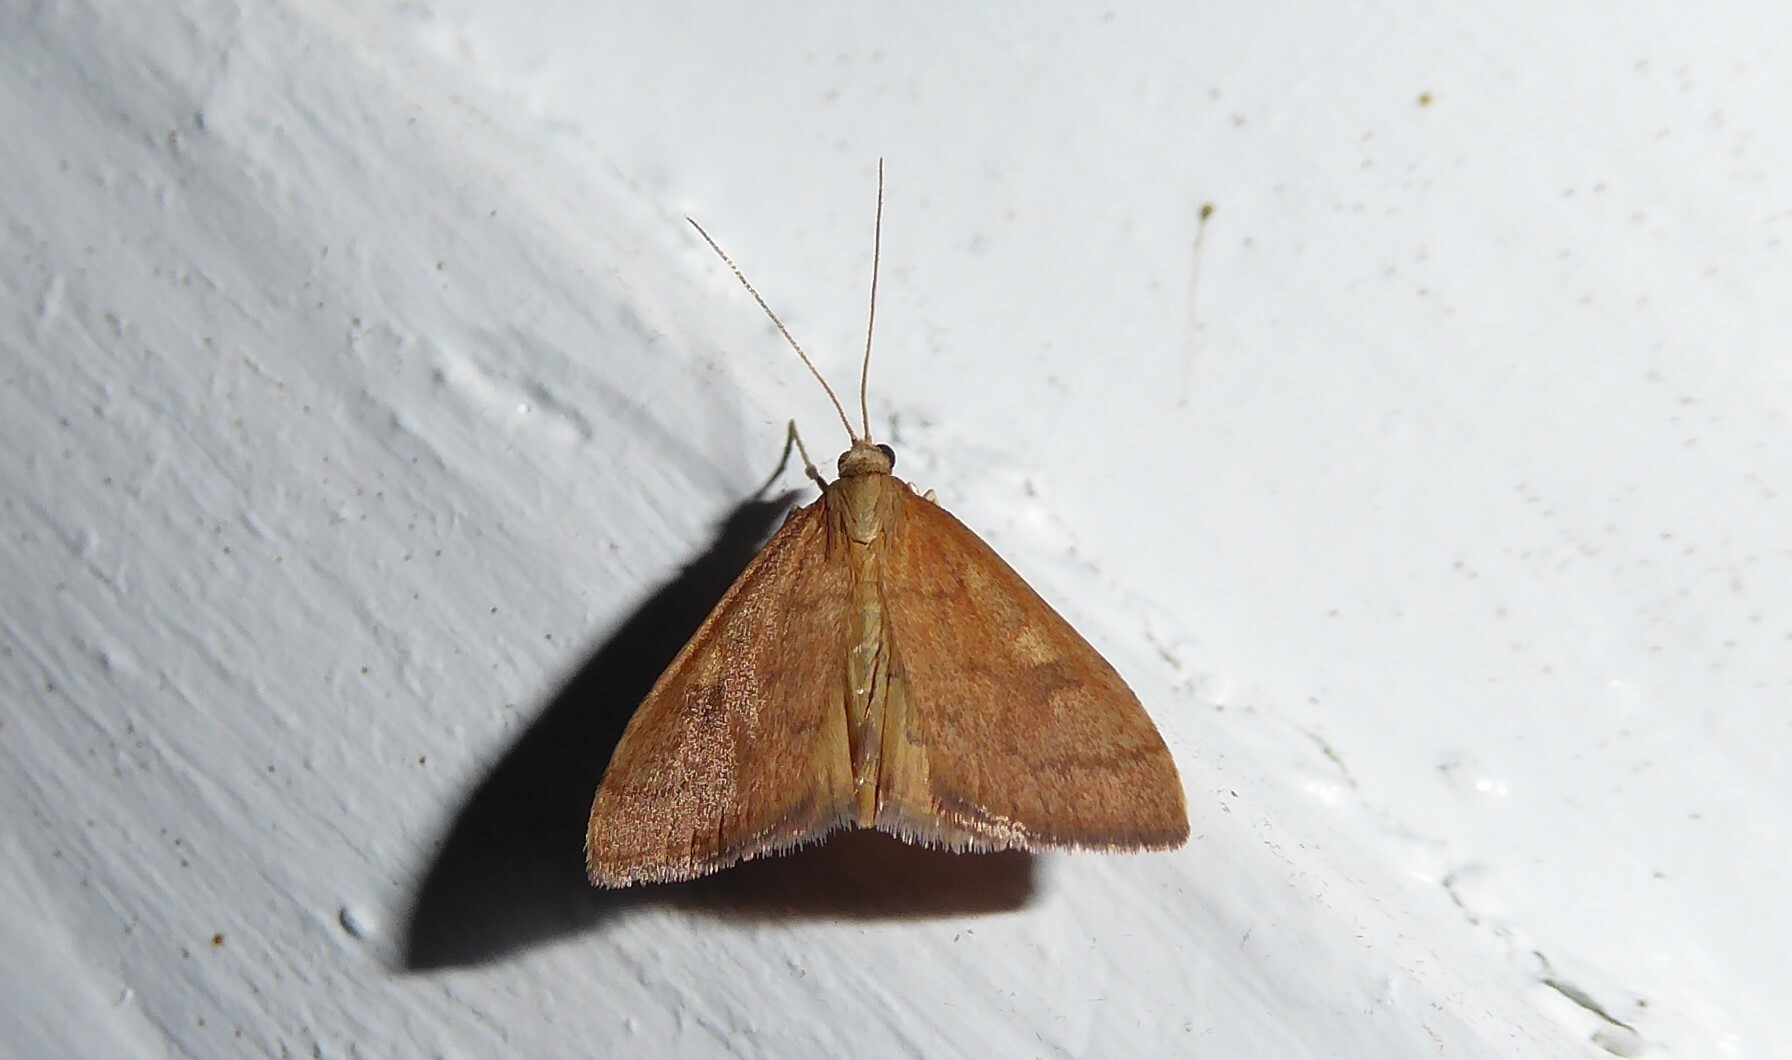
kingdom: Animalia
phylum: Arthropoda
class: Insecta
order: Lepidoptera
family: Crambidae
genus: Udea
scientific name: Udea Mnesictena flavidalis
